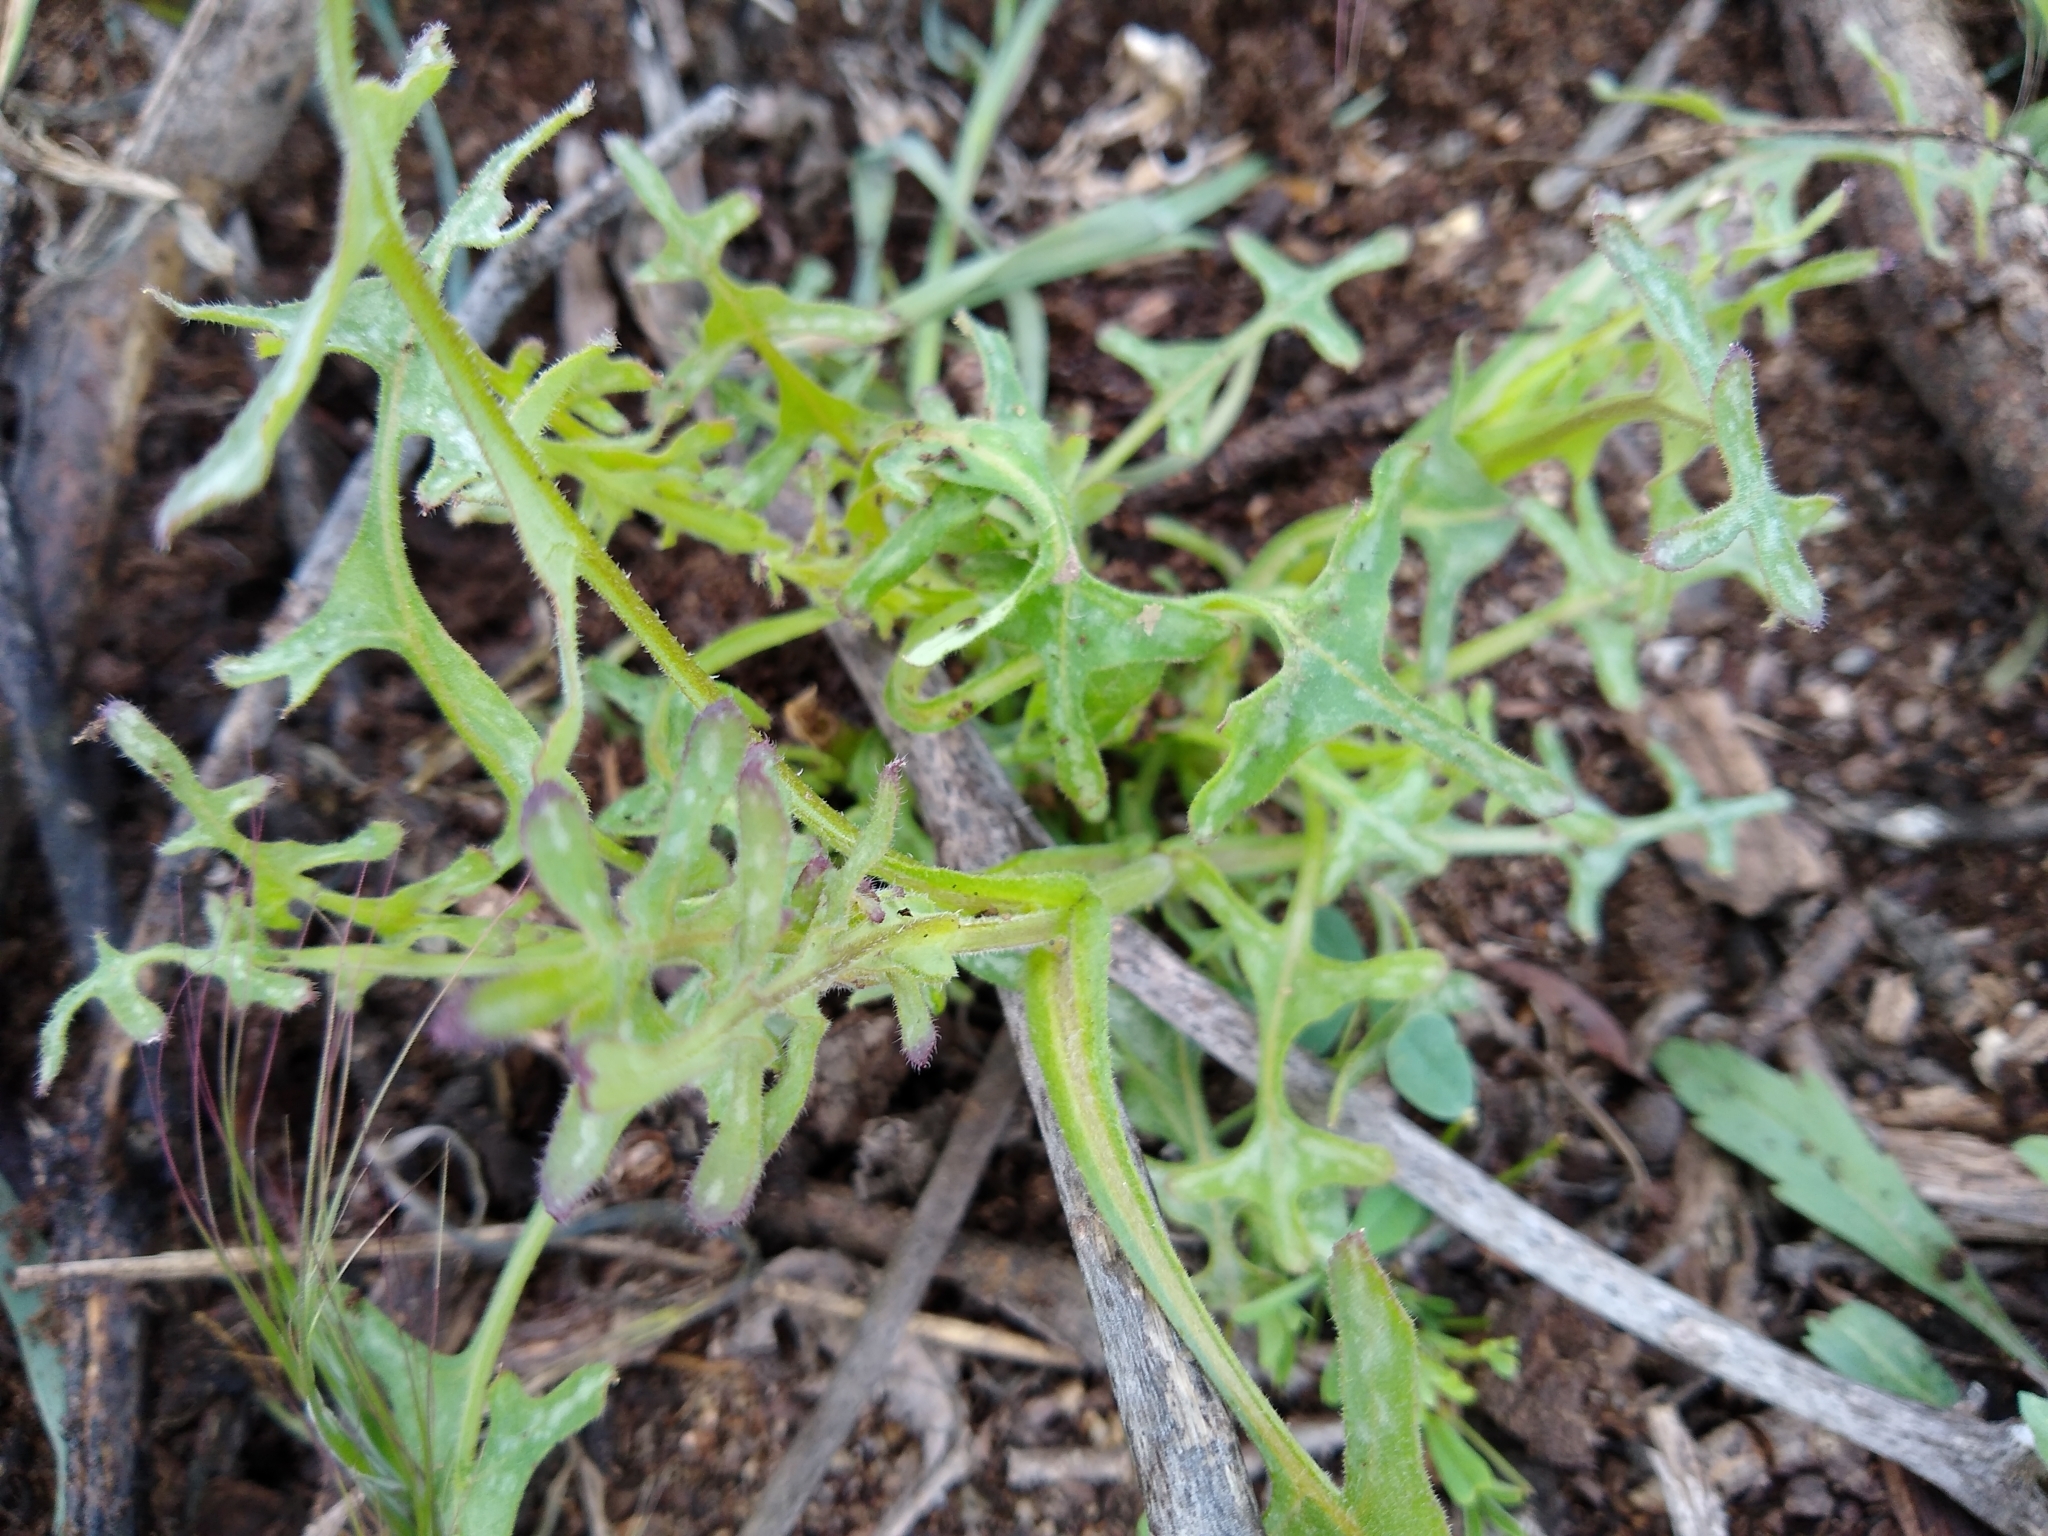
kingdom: Plantae
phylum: Tracheophyta
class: Magnoliopsida
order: Boraginales
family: Hydrophyllaceae
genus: Pholistoma
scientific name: Pholistoma auritum
